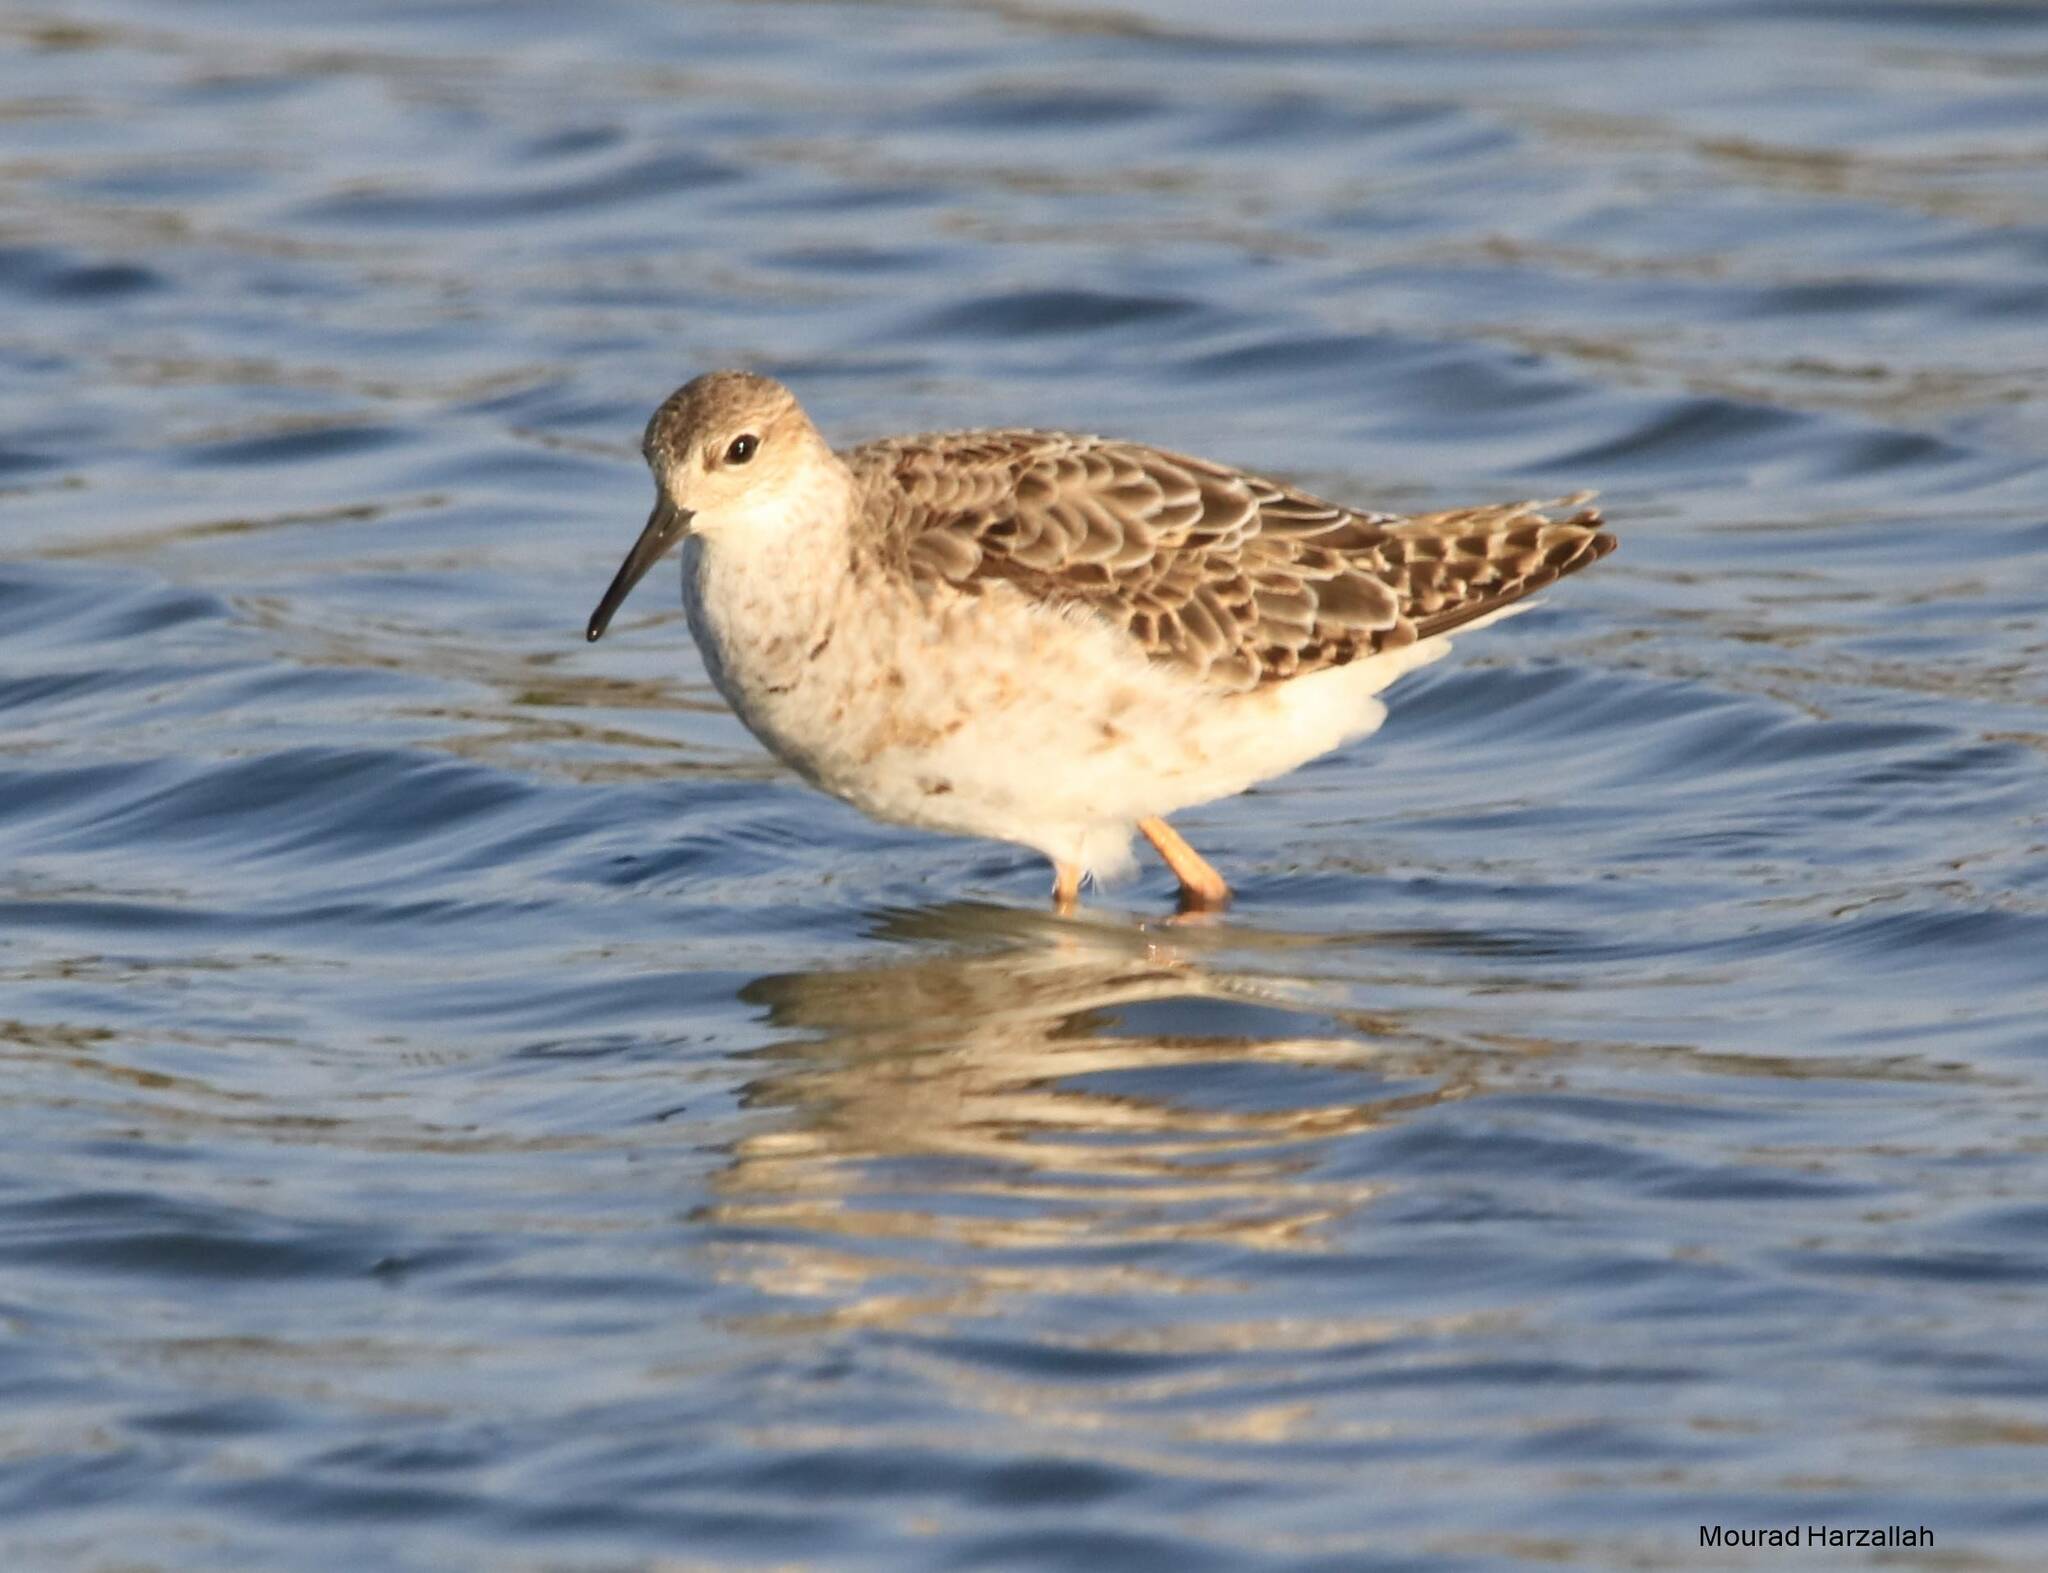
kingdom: Animalia
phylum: Chordata
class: Aves
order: Charadriiformes
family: Scolopacidae
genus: Calidris
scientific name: Calidris pugnax
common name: Ruff
